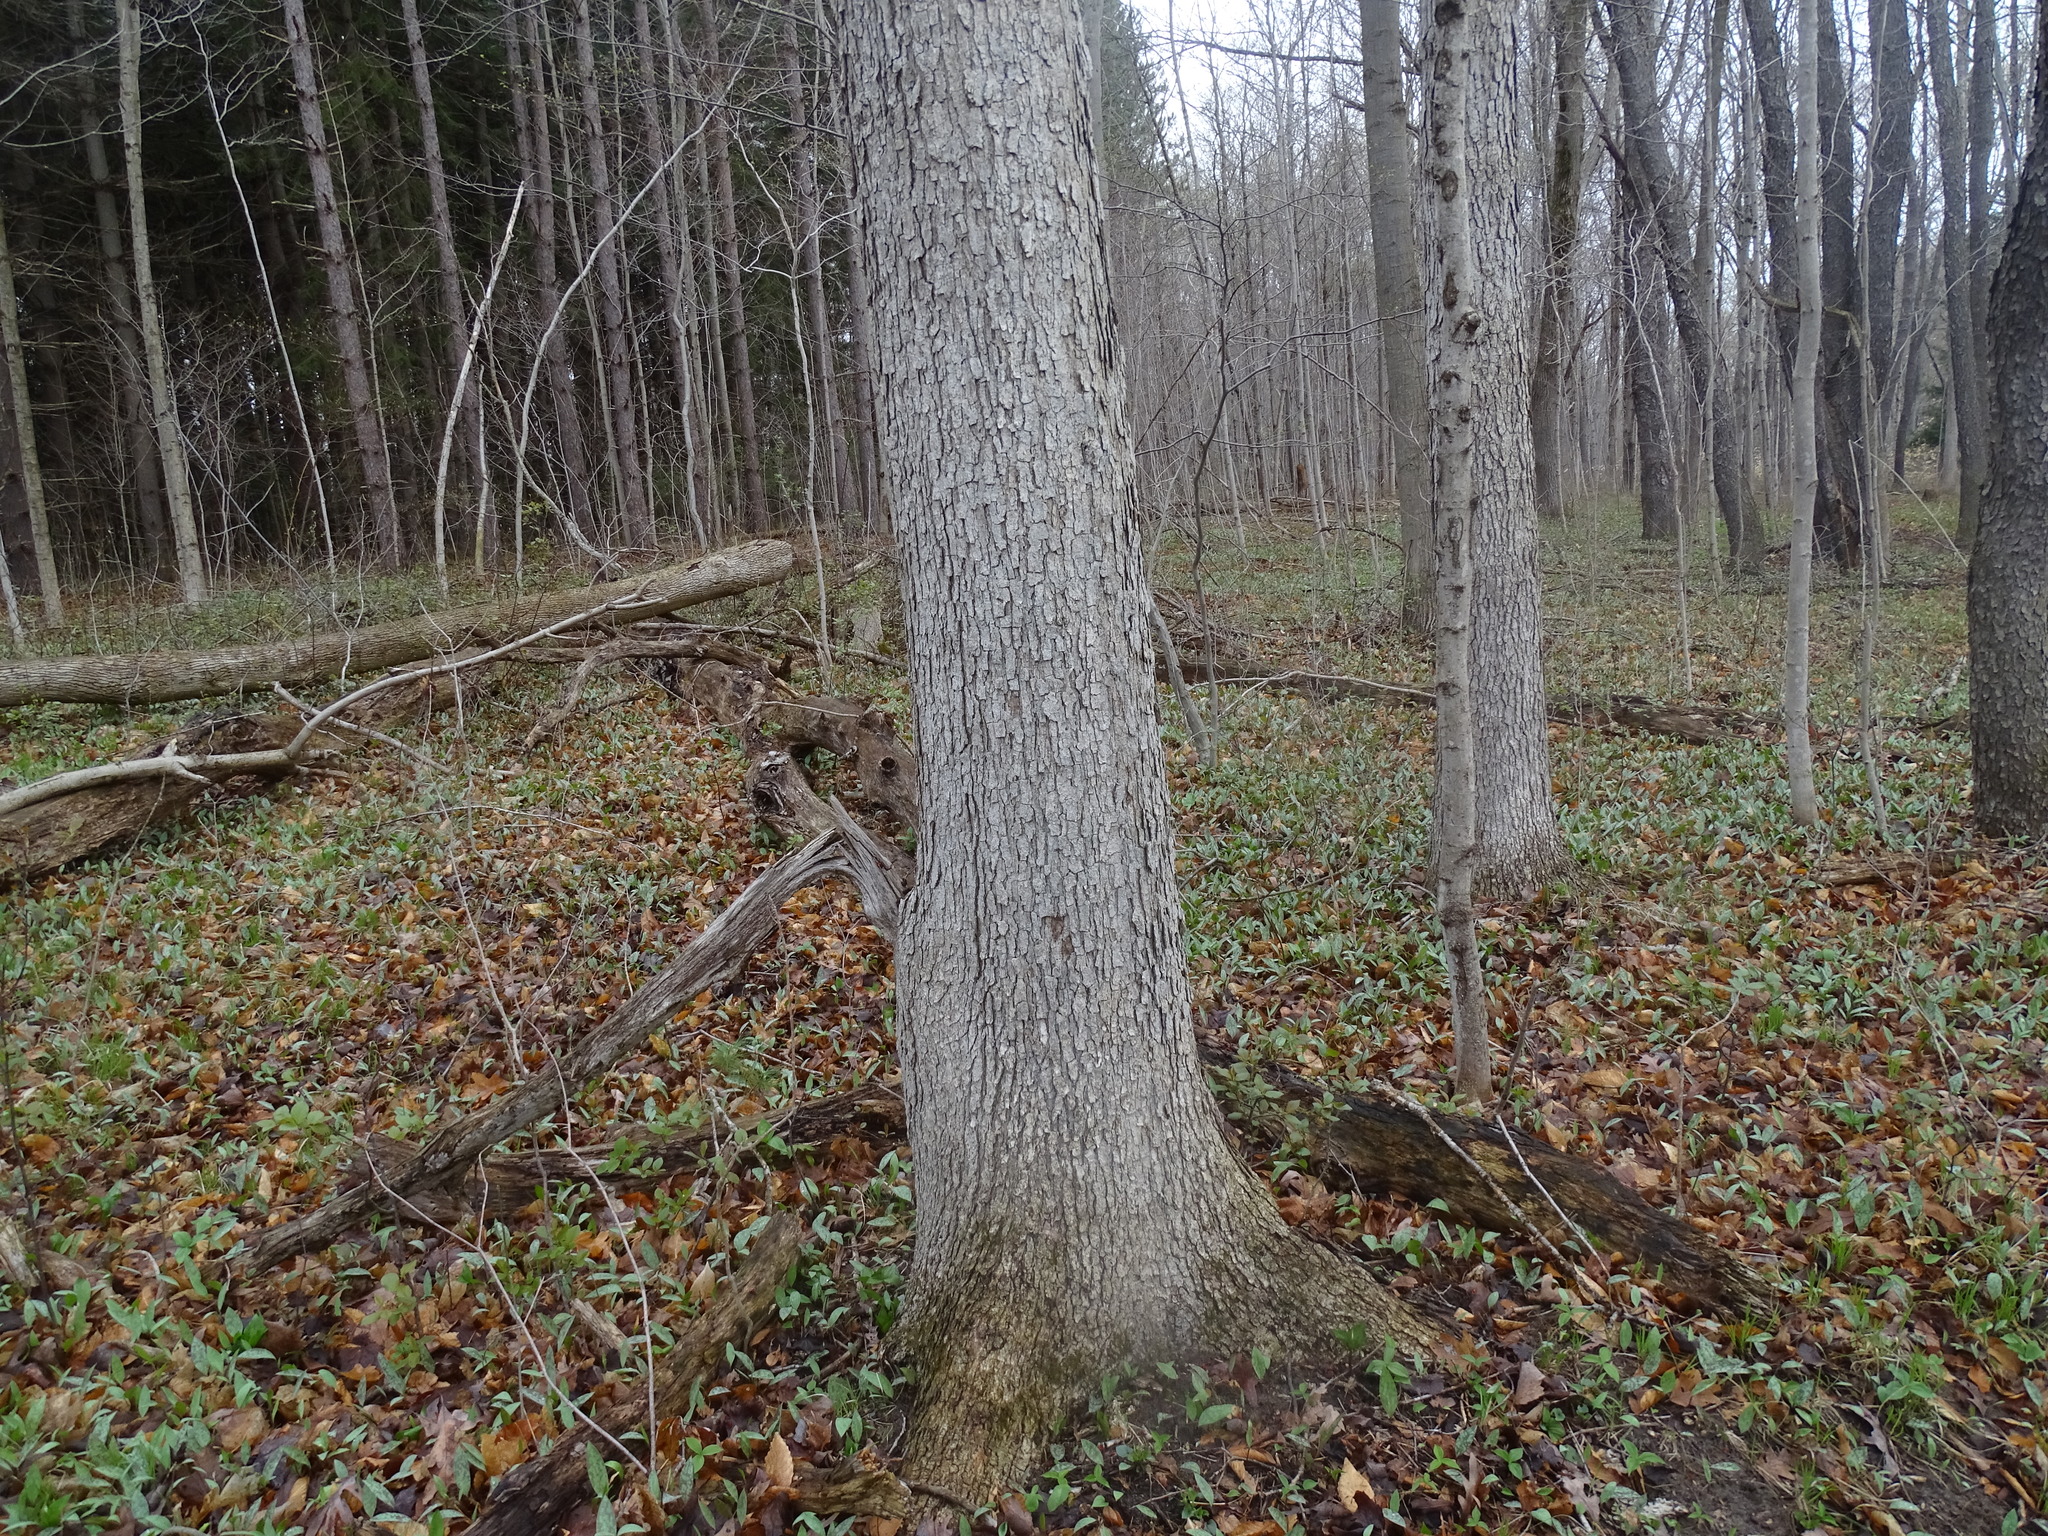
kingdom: Plantae
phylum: Tracheophyta
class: Magnoliopsida
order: Fagales
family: Fagaceae
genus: Quercus
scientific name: Quercus alba
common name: White oak
